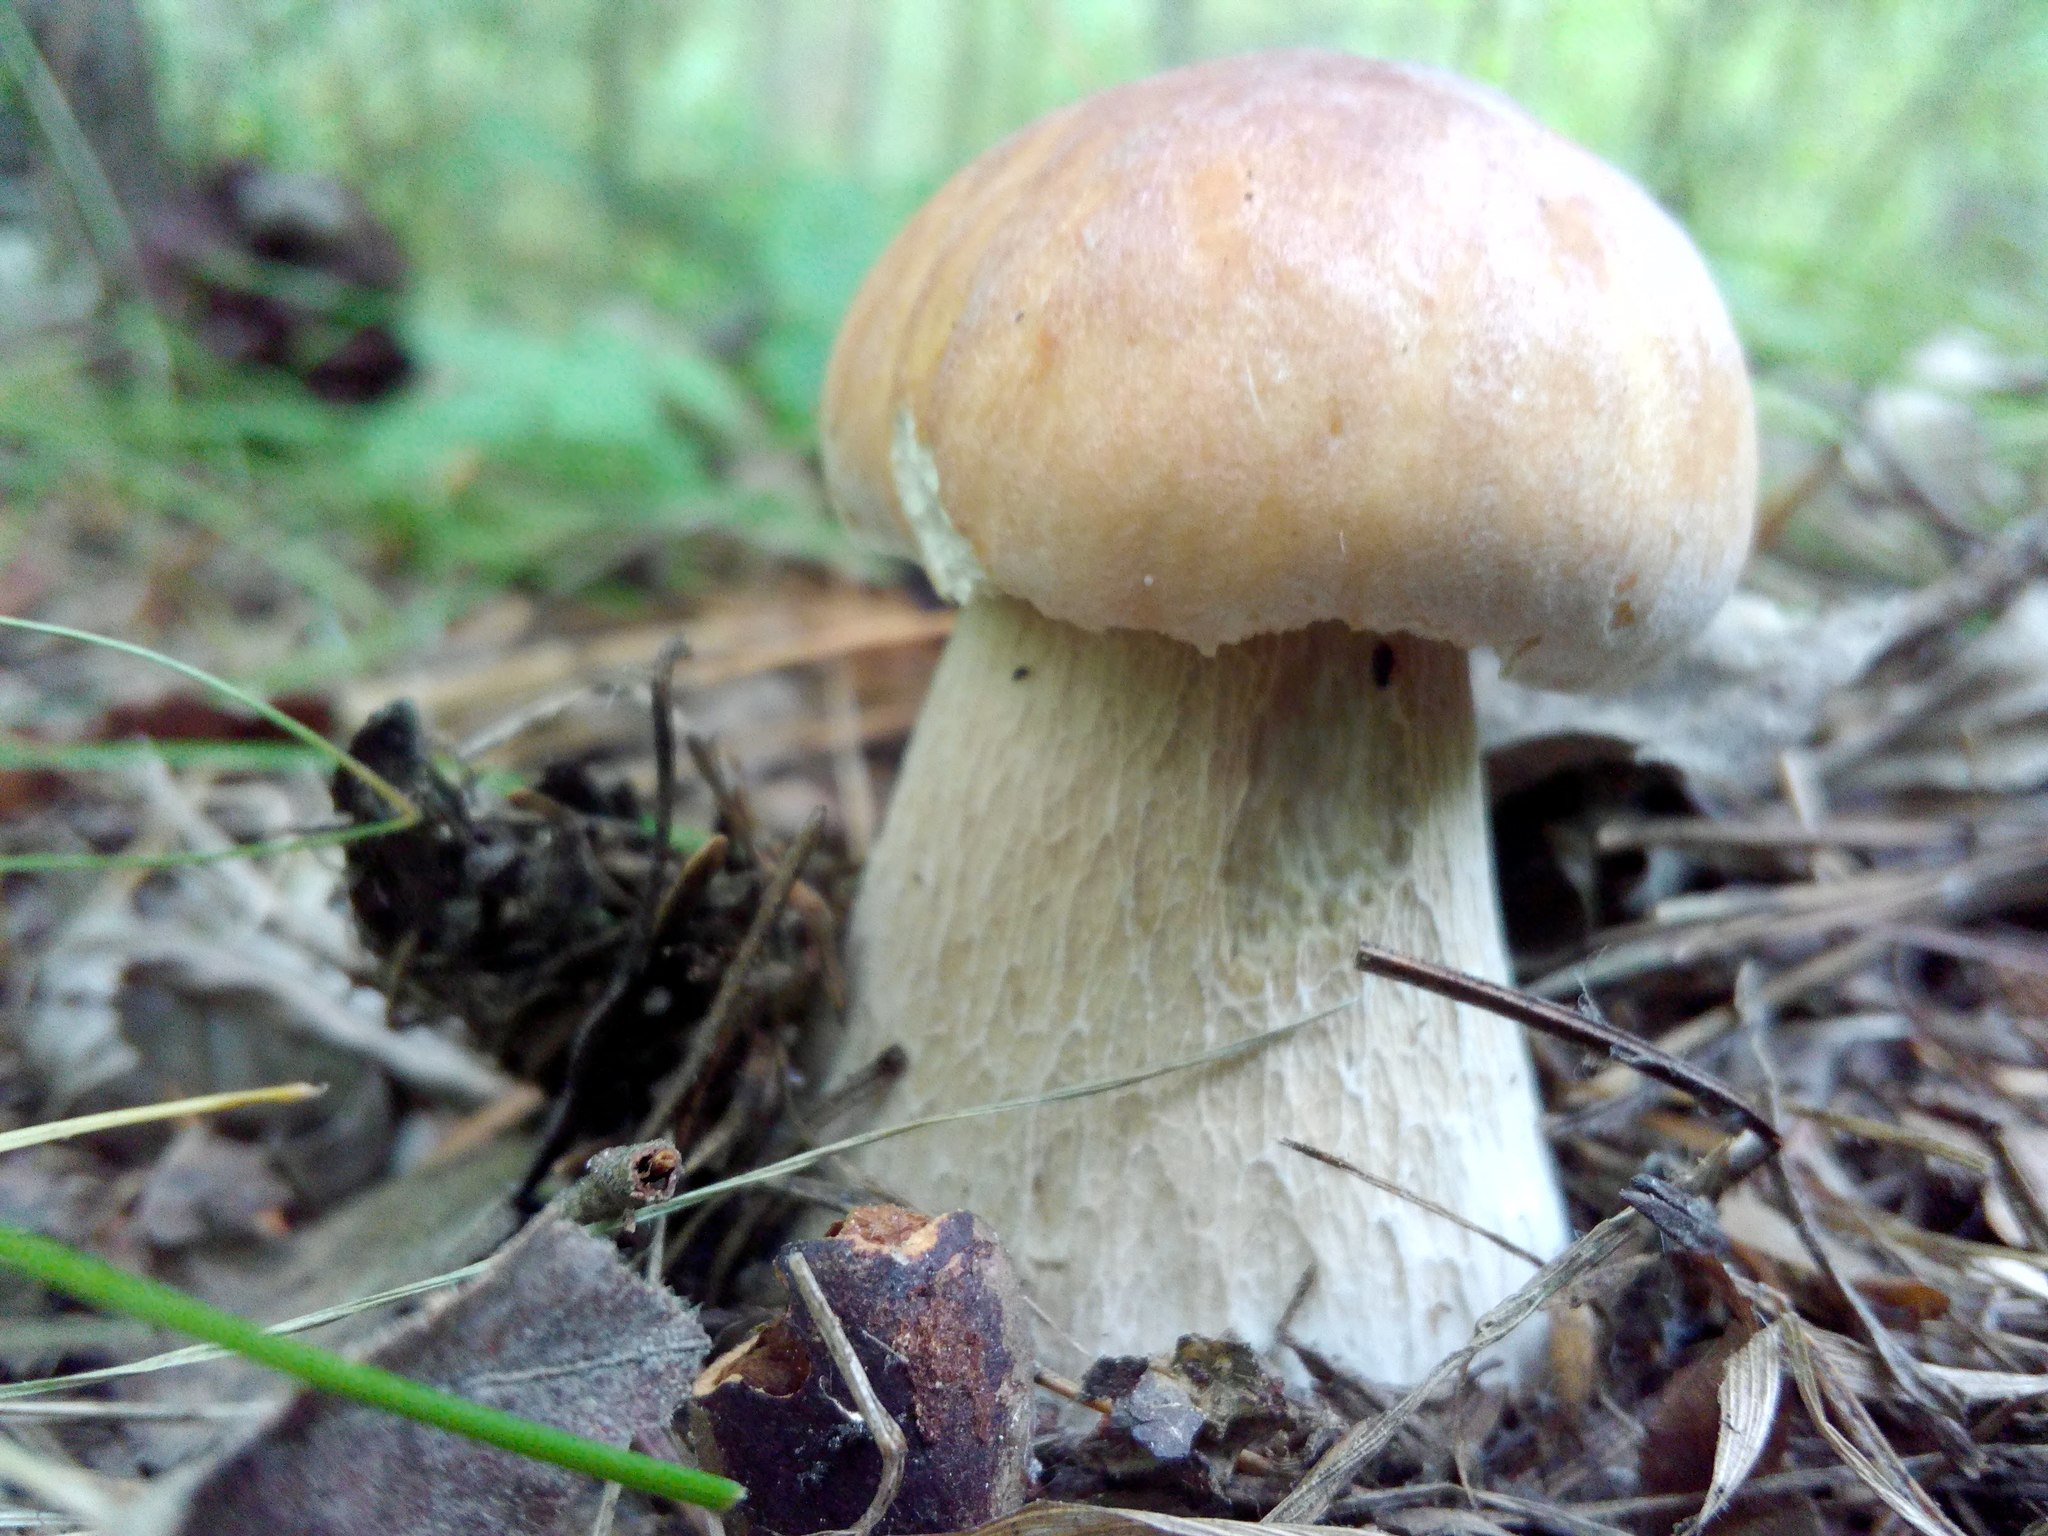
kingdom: Fungi
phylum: Basidiomycota
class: Agaricomycetes
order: Boletales
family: Boletaceae
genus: Boletus
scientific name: Boletus edulis
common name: Cep
